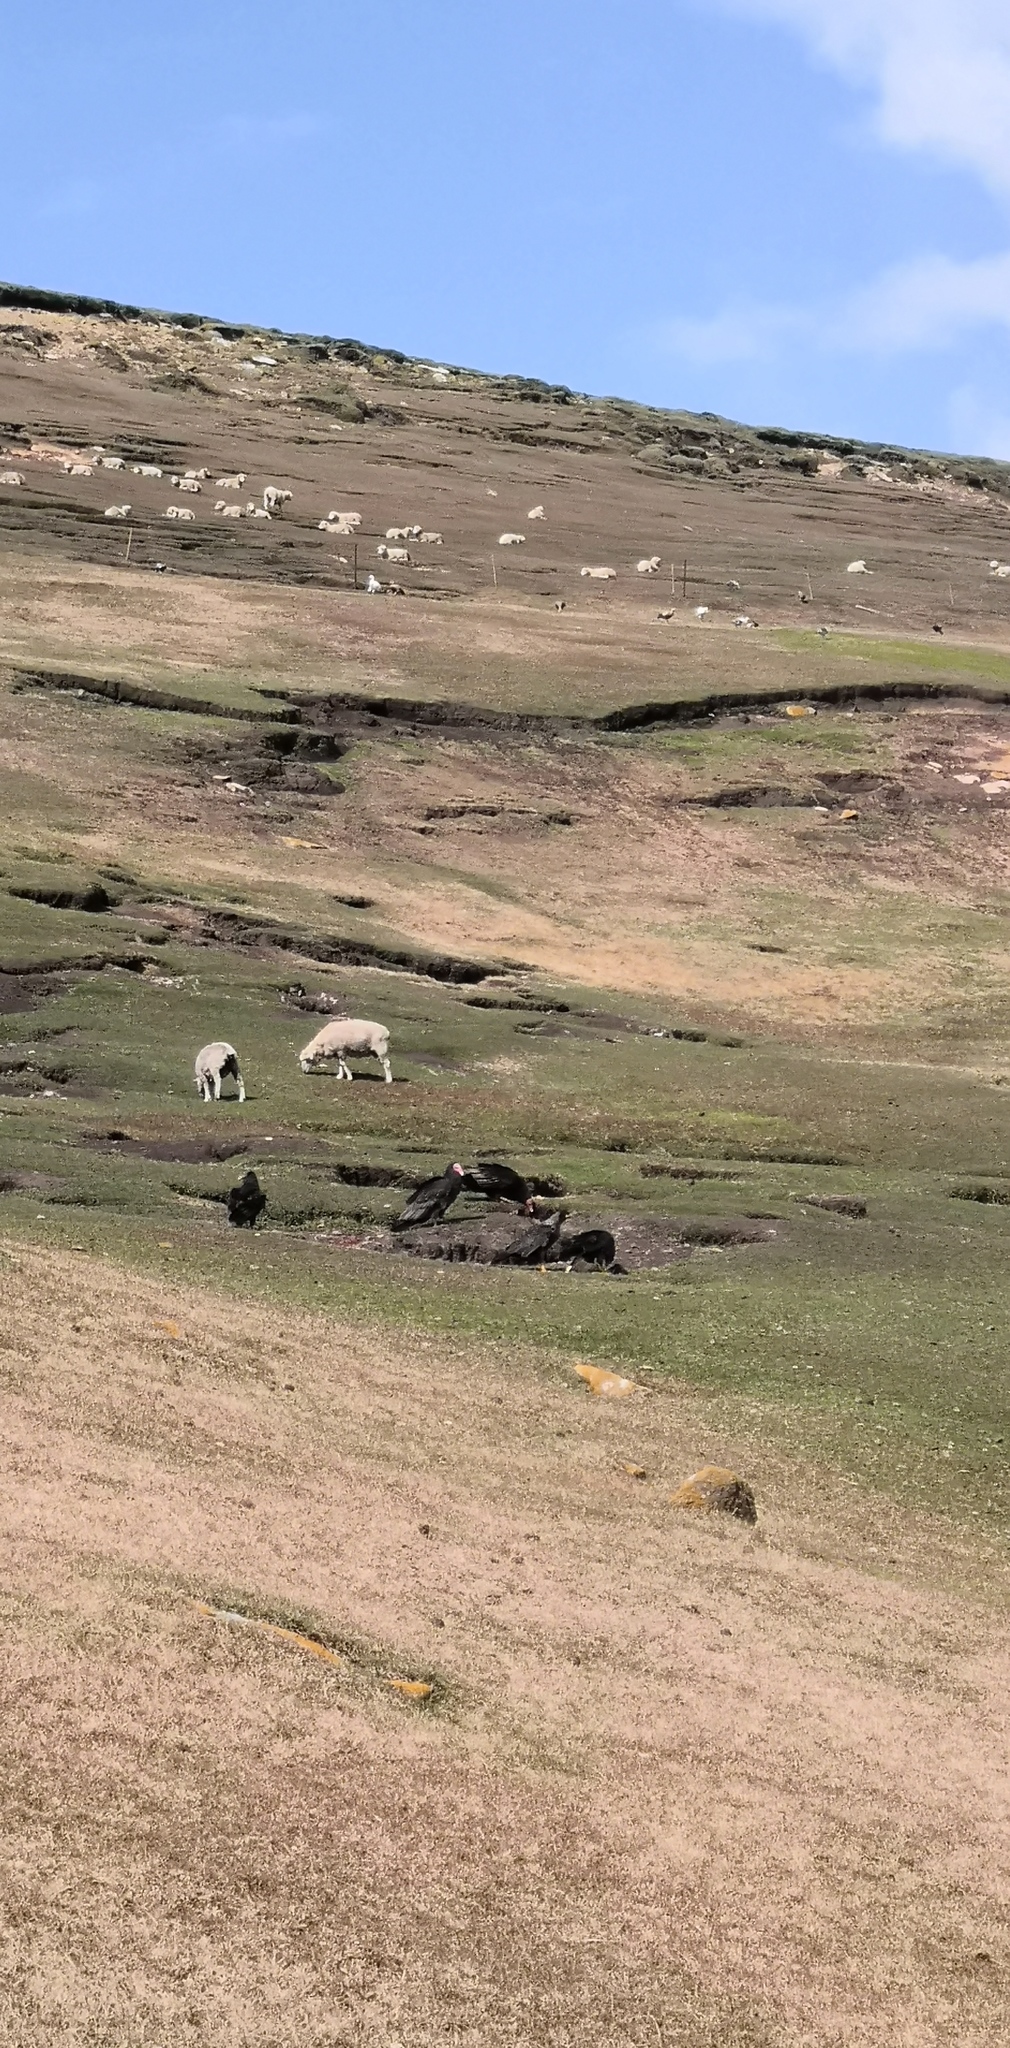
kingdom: Animalia
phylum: Chordata
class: Aves
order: Accipitriformes
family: Cathartidae
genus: Cathartes
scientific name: Cathartes aura
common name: Turkey vulture
